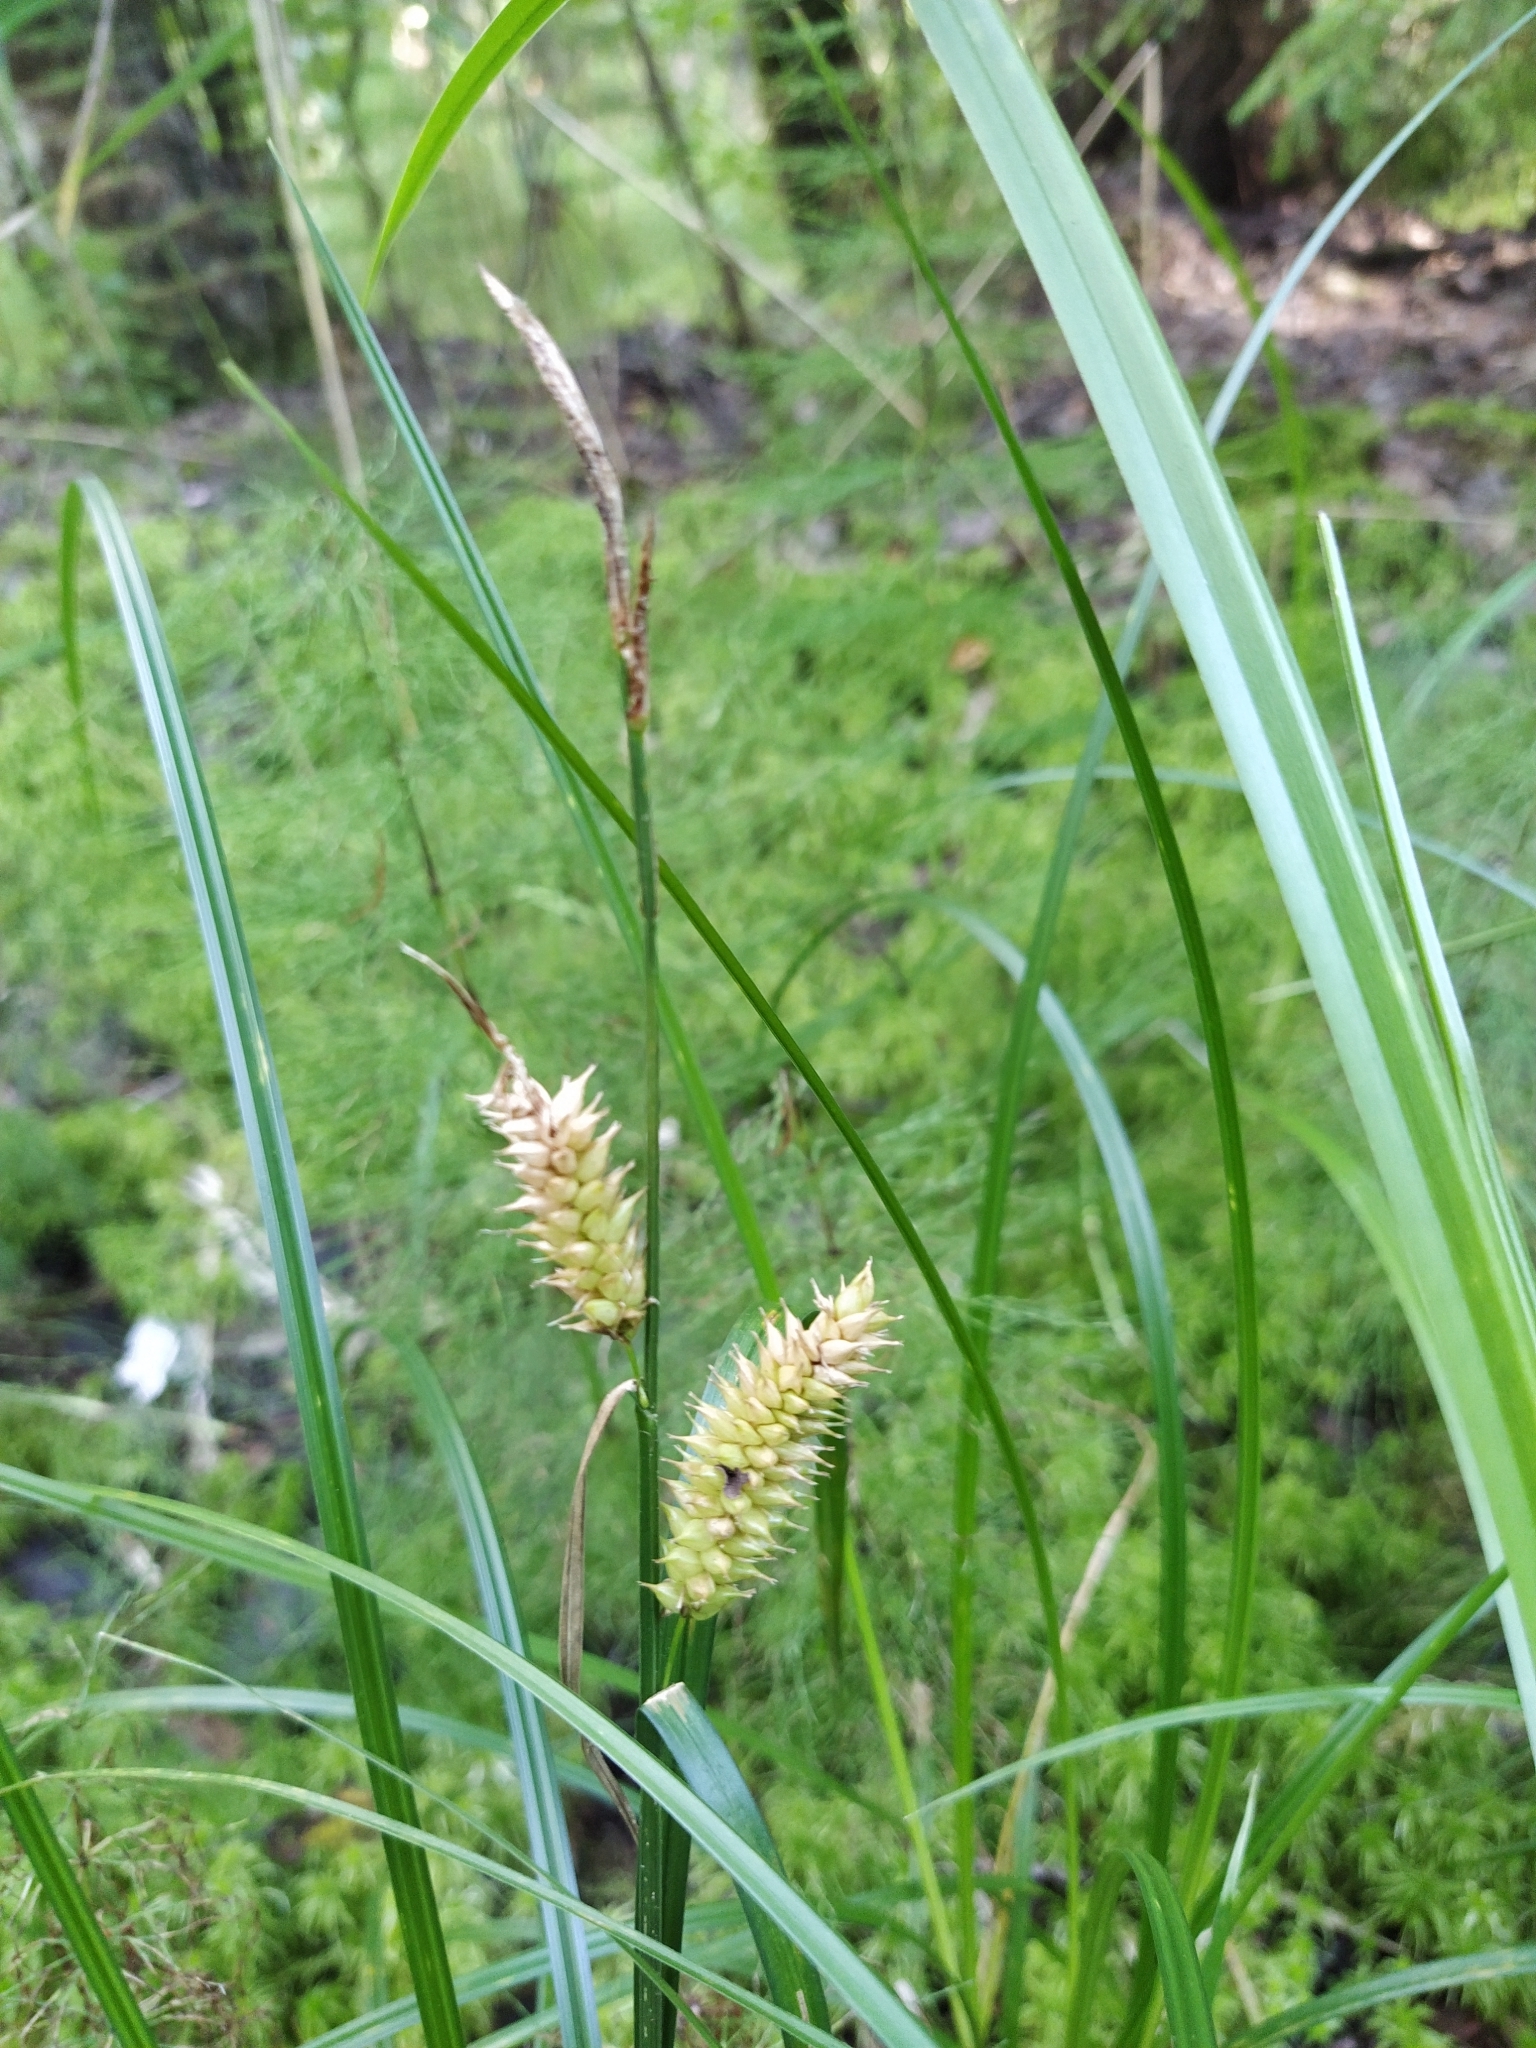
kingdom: Plantae
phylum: Tracheophyta
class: Liliopsida
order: Poales
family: Cyperaceae
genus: Carex
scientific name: Carex vesicaria
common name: Bladder-sedge
